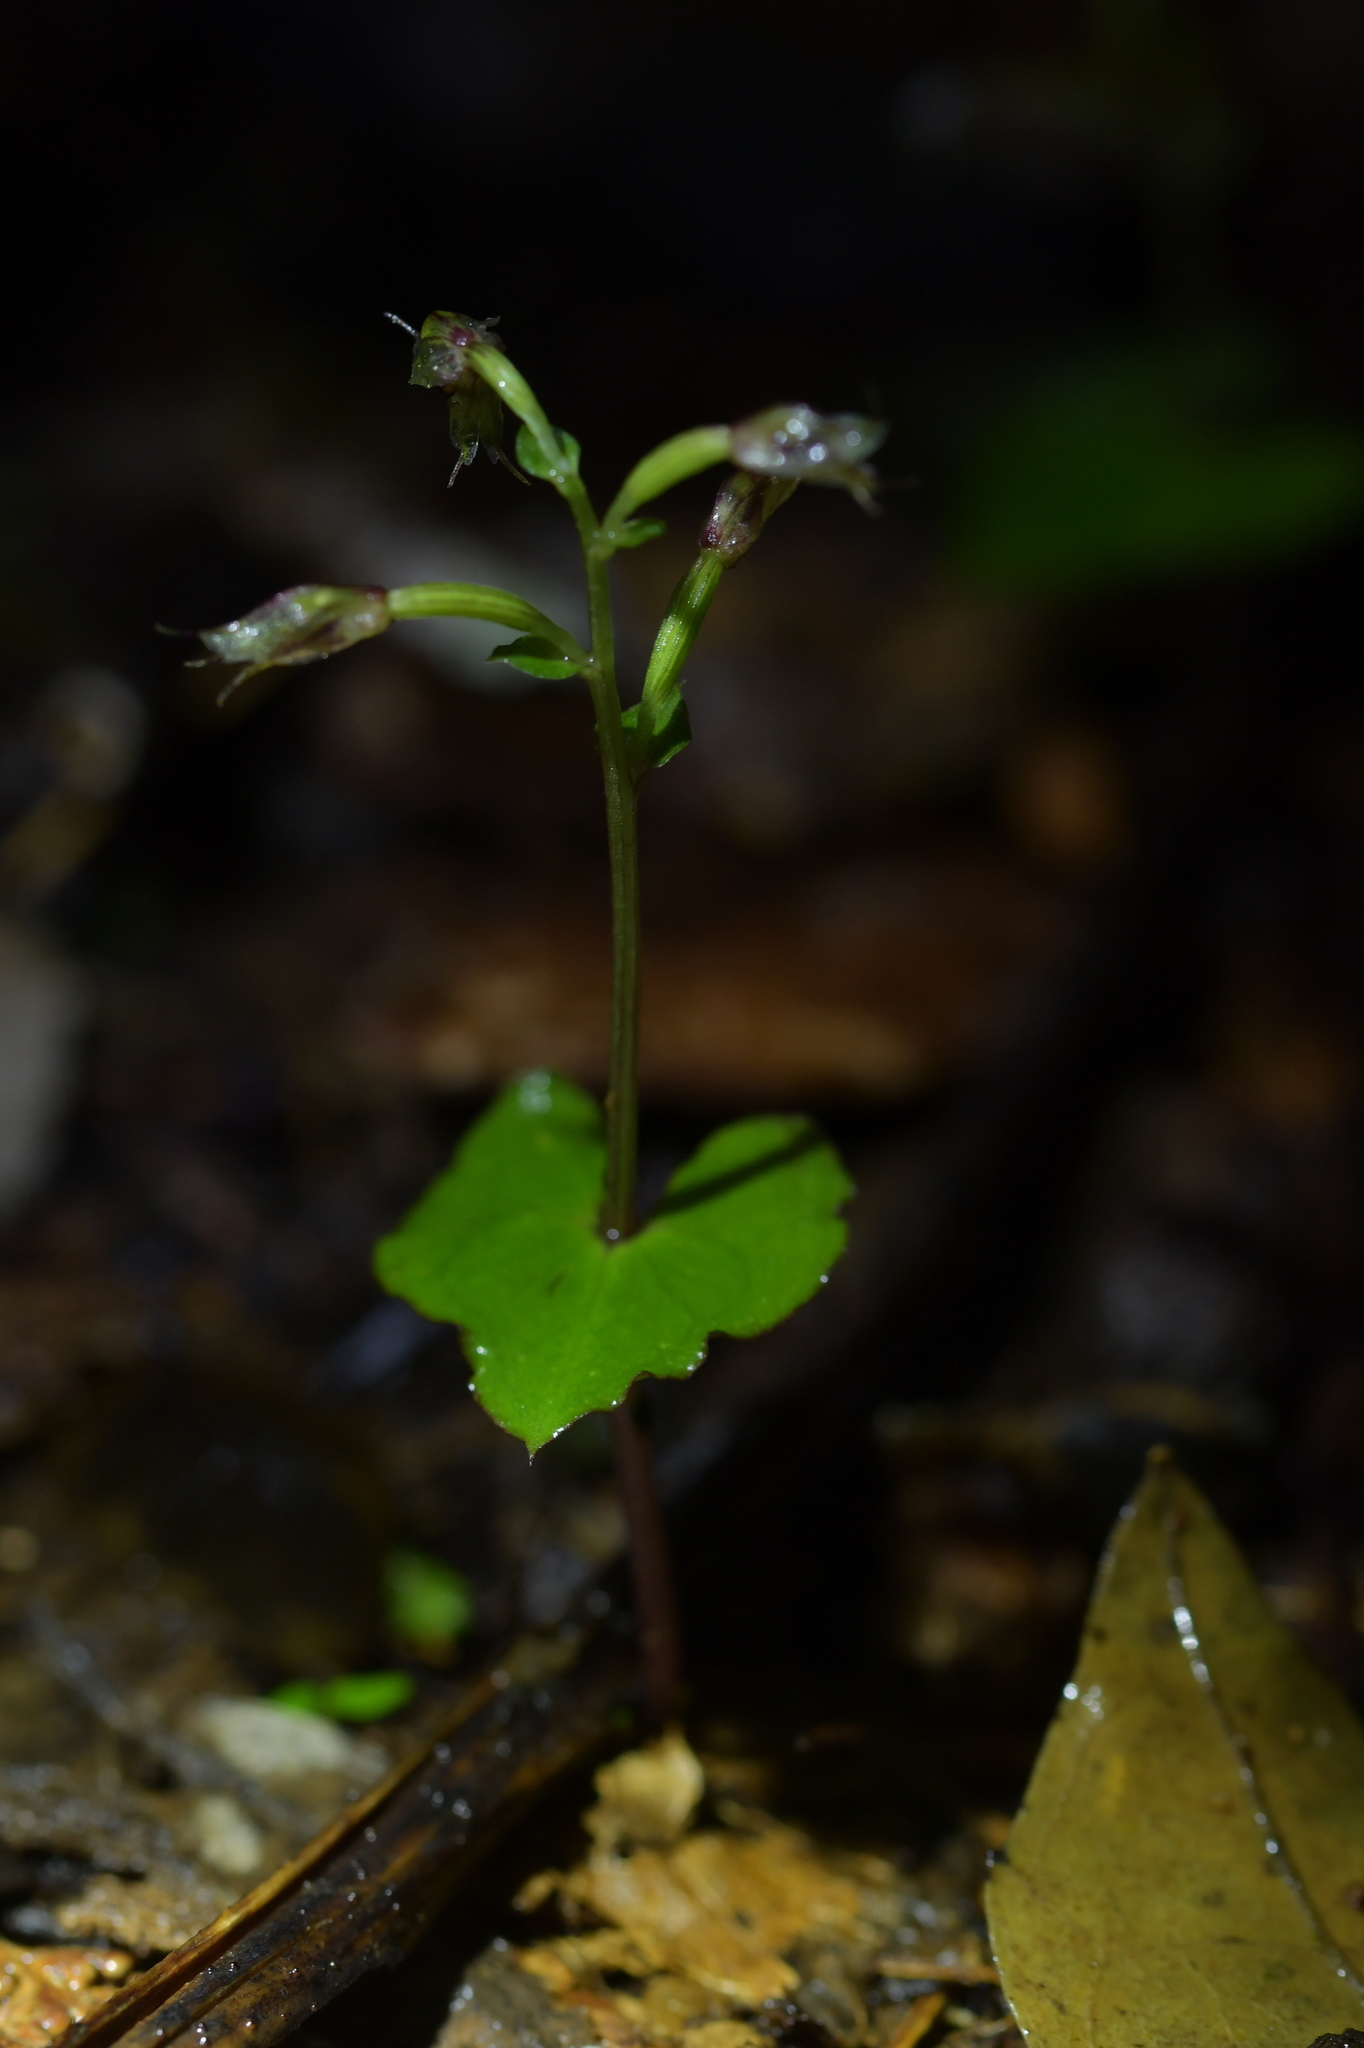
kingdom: Plantae
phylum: Tracheophyta
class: Liliopsida
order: Asparagales
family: Orchidaceae
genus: Acianthus
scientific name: Acianthus sinclairii
